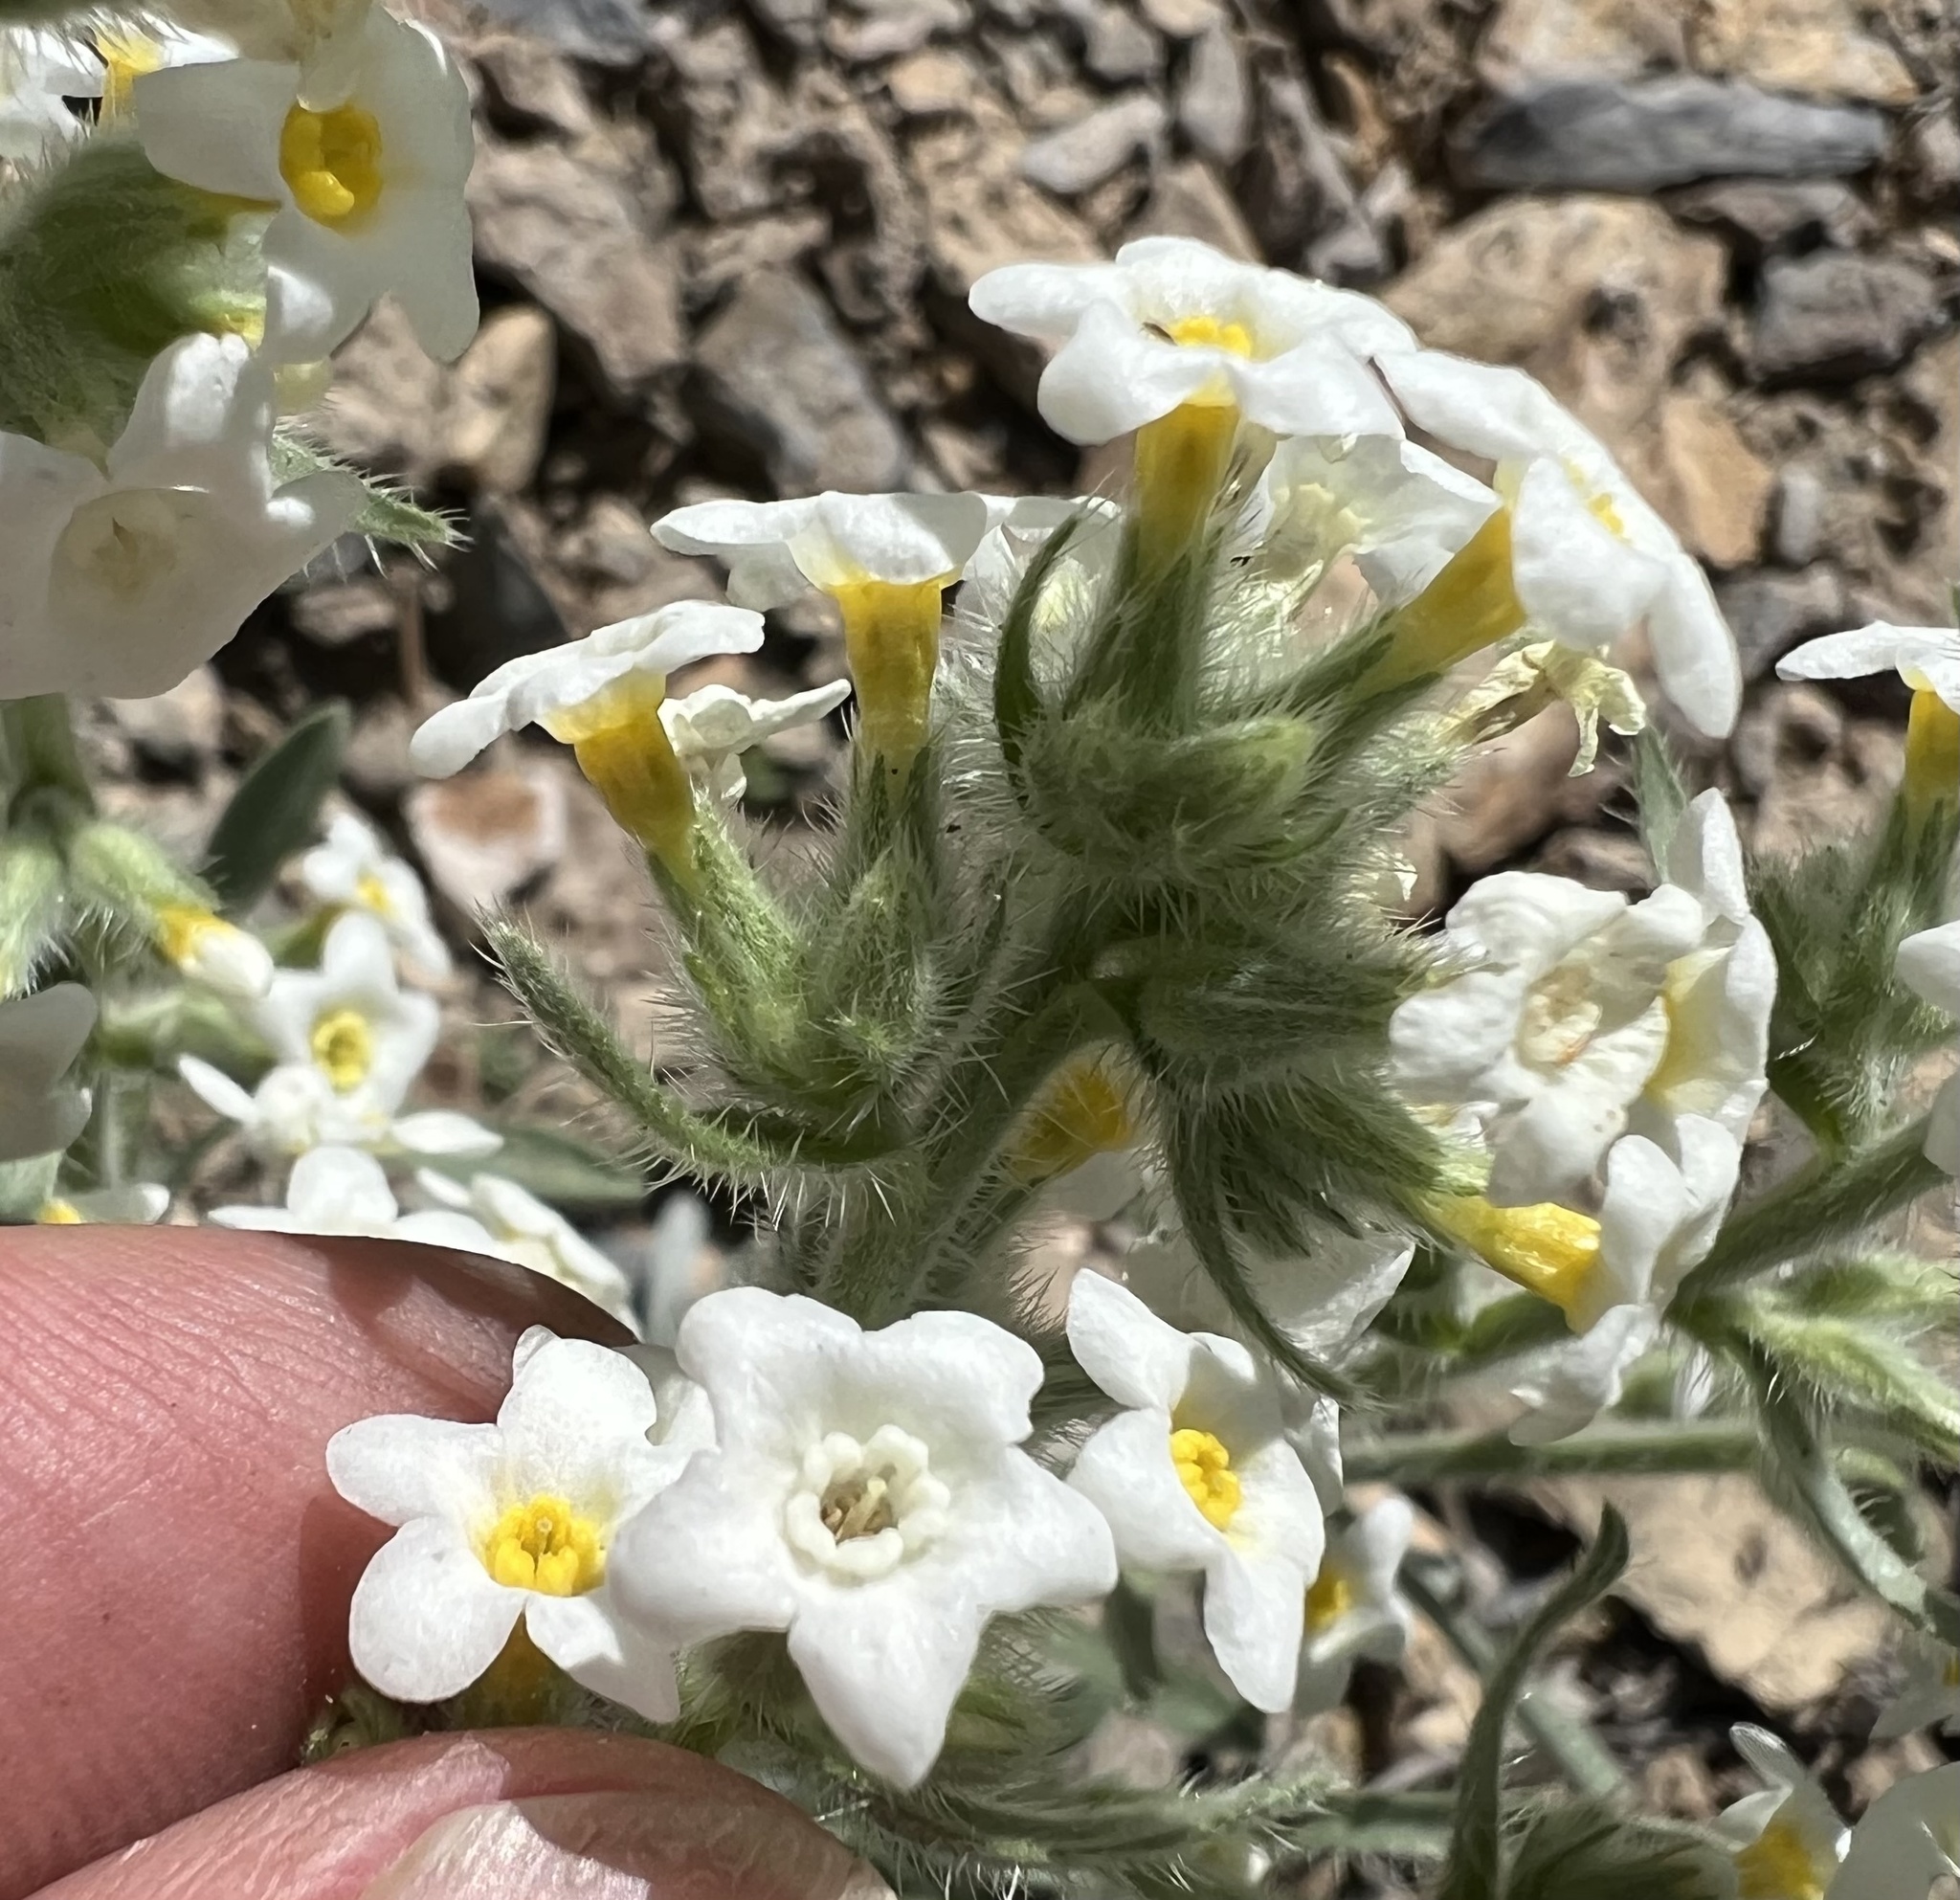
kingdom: Plantae
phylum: Tracheophyta
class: Magnoliopsida
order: Boraginales
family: Boraginaceae
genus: Oreocarya
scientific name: Oreocarya flavoculata
